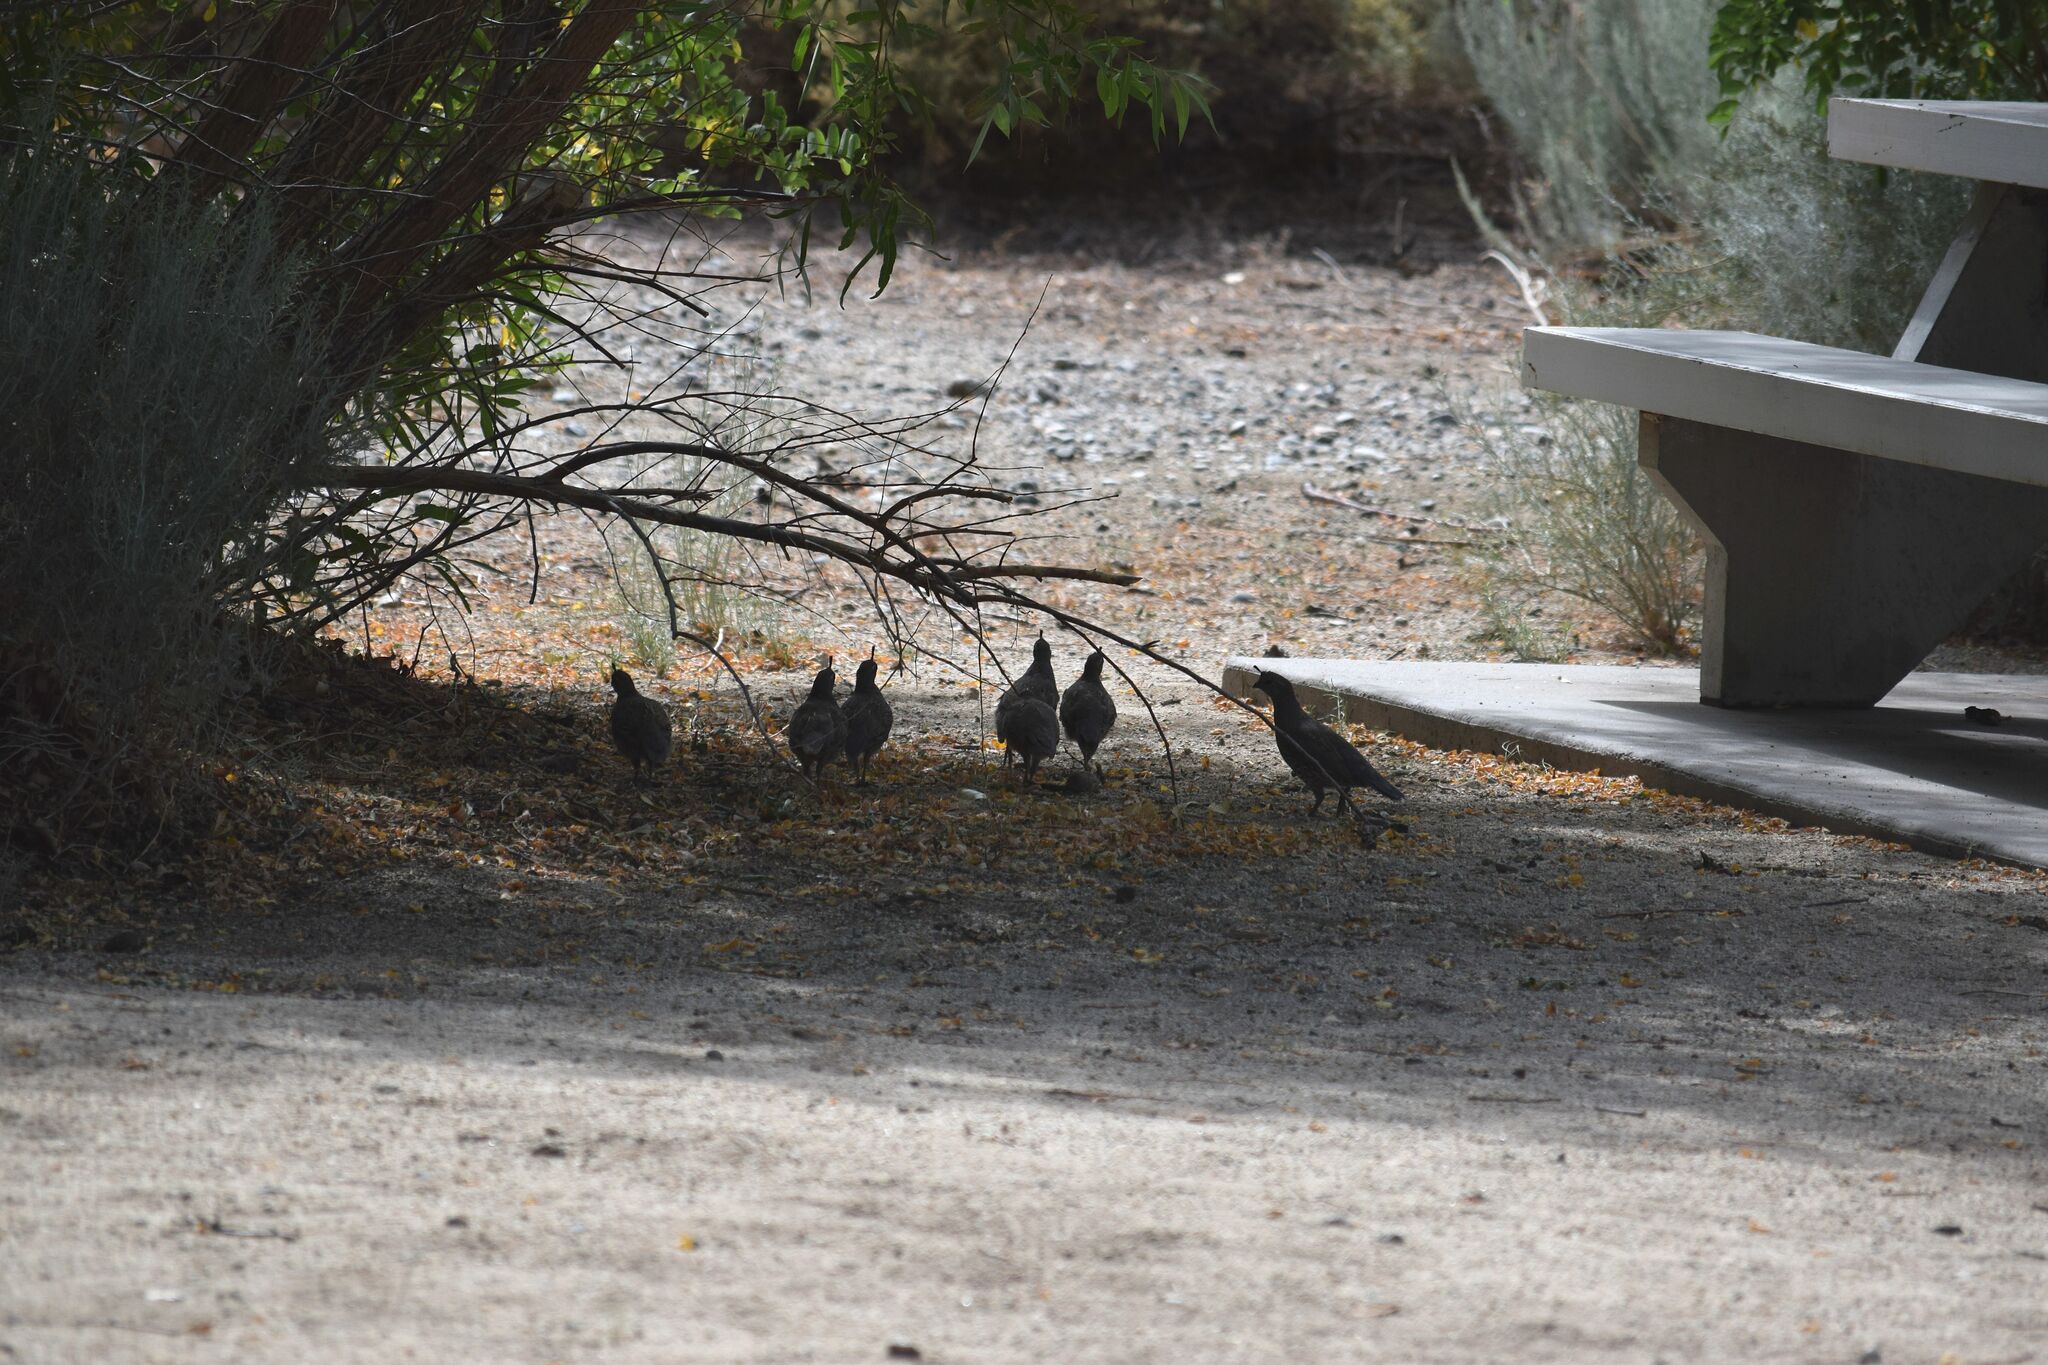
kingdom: Animalia
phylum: Chordata
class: Aves
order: Galliformes
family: Odontophoridae
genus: Callipepla
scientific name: Callipepla californica
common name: California quail
